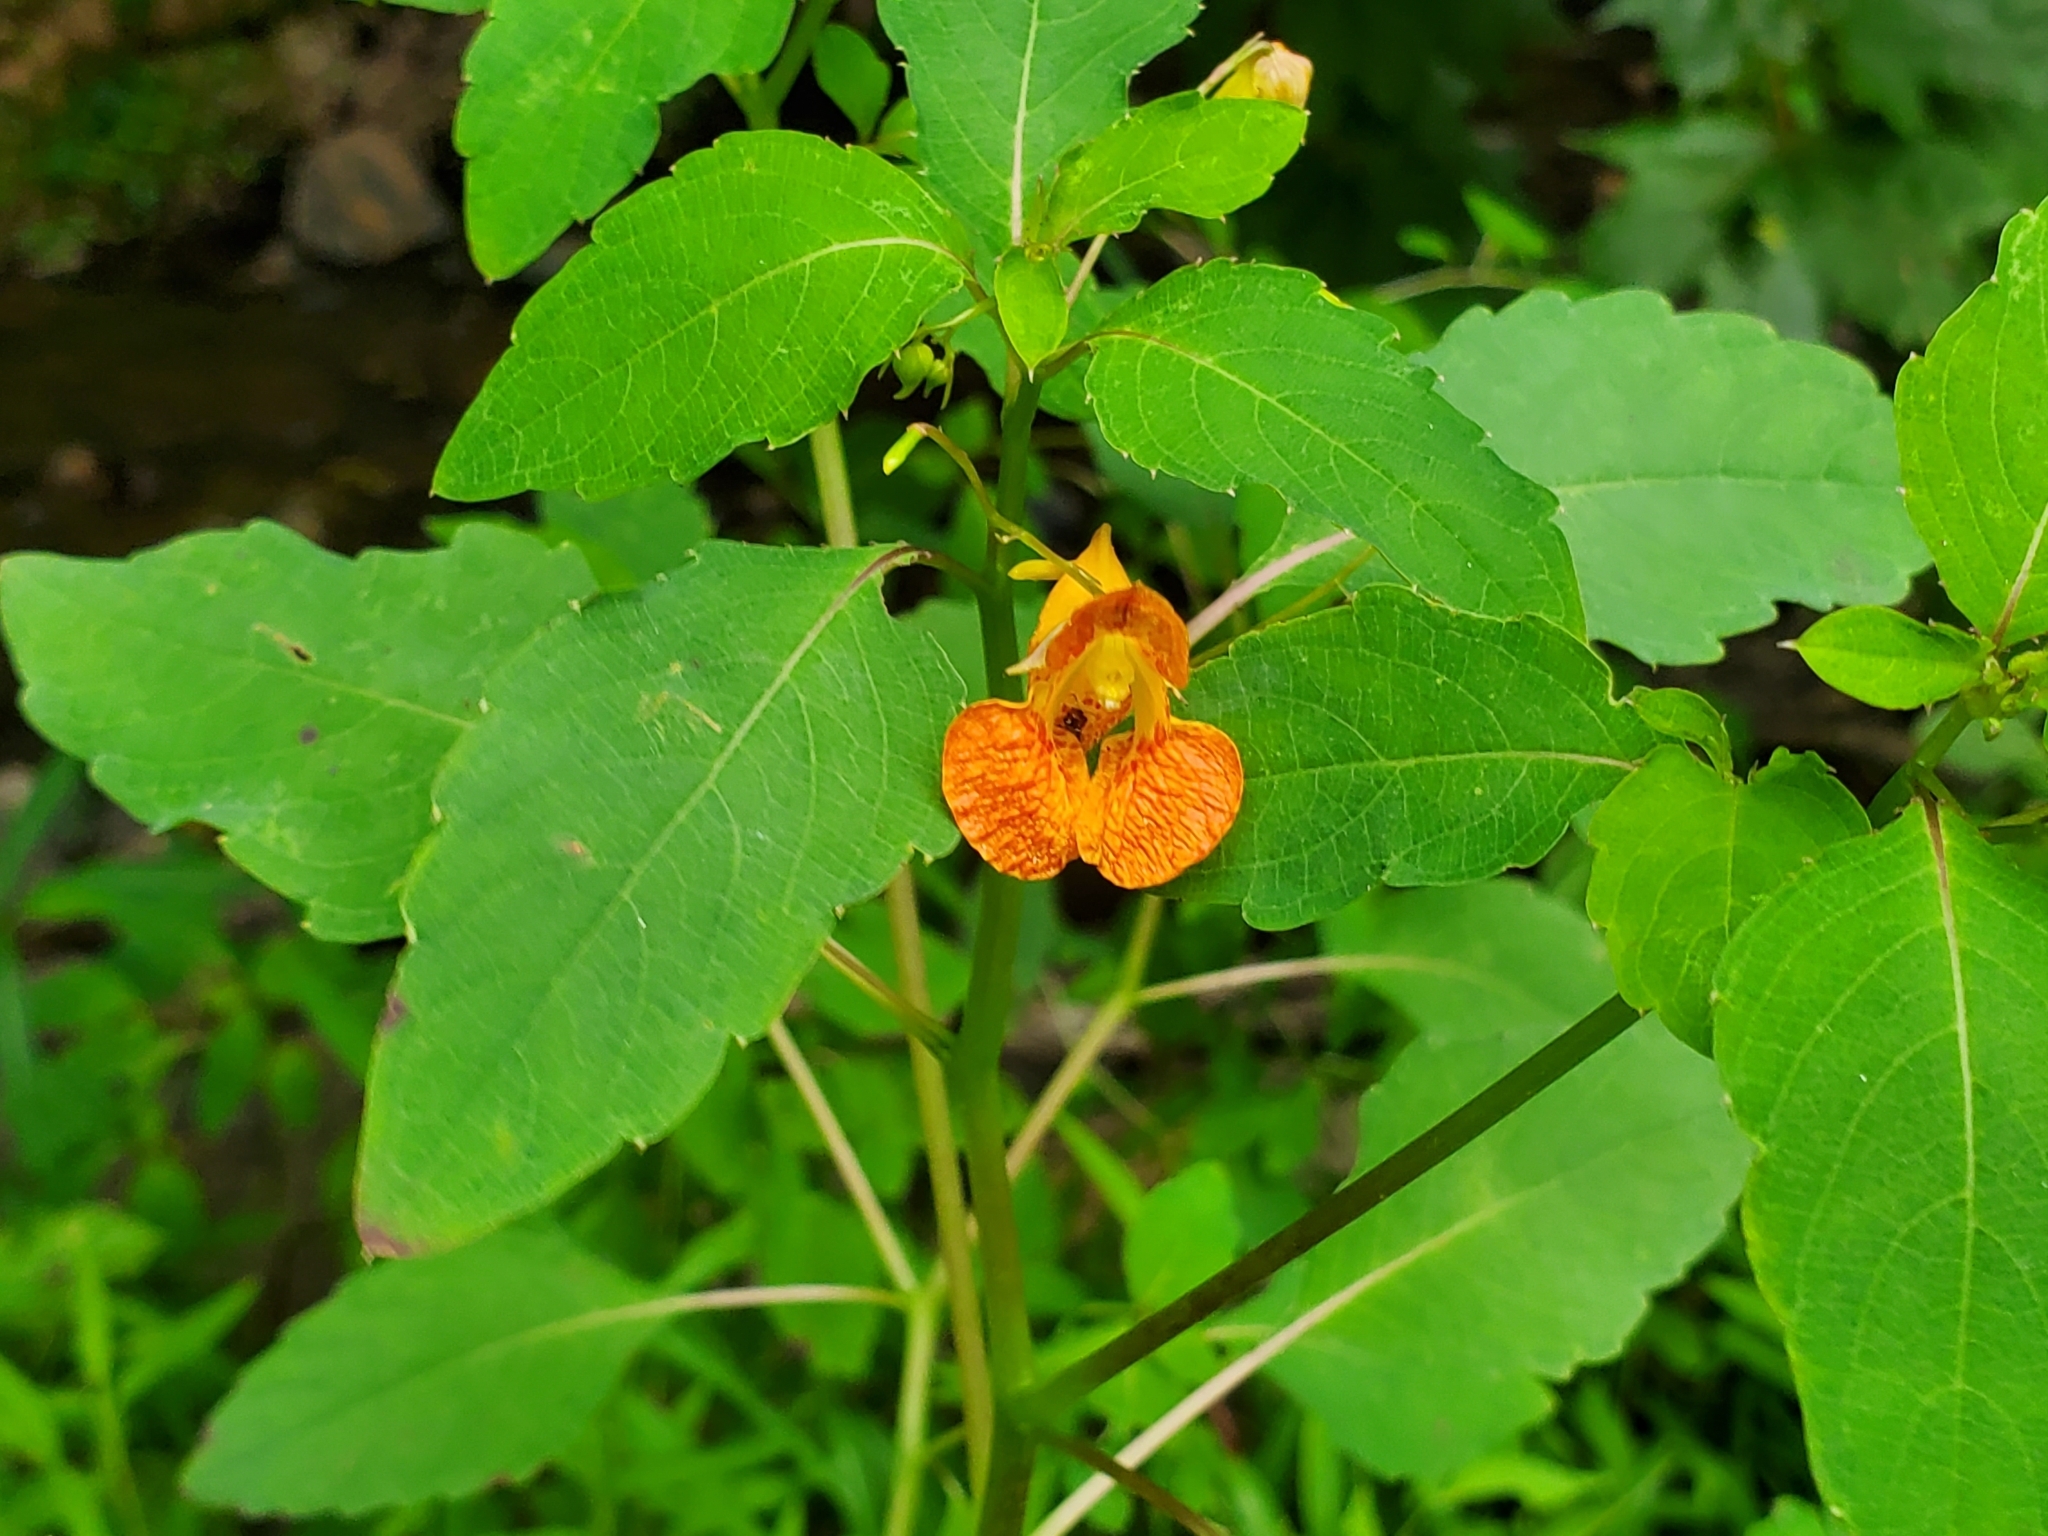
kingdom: Plantae
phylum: Tracheophyta
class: Magnoliopsida
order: Ericales
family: Balsaminaceae
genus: Impatiens
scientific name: Impatiens capensis
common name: Orange balsam
